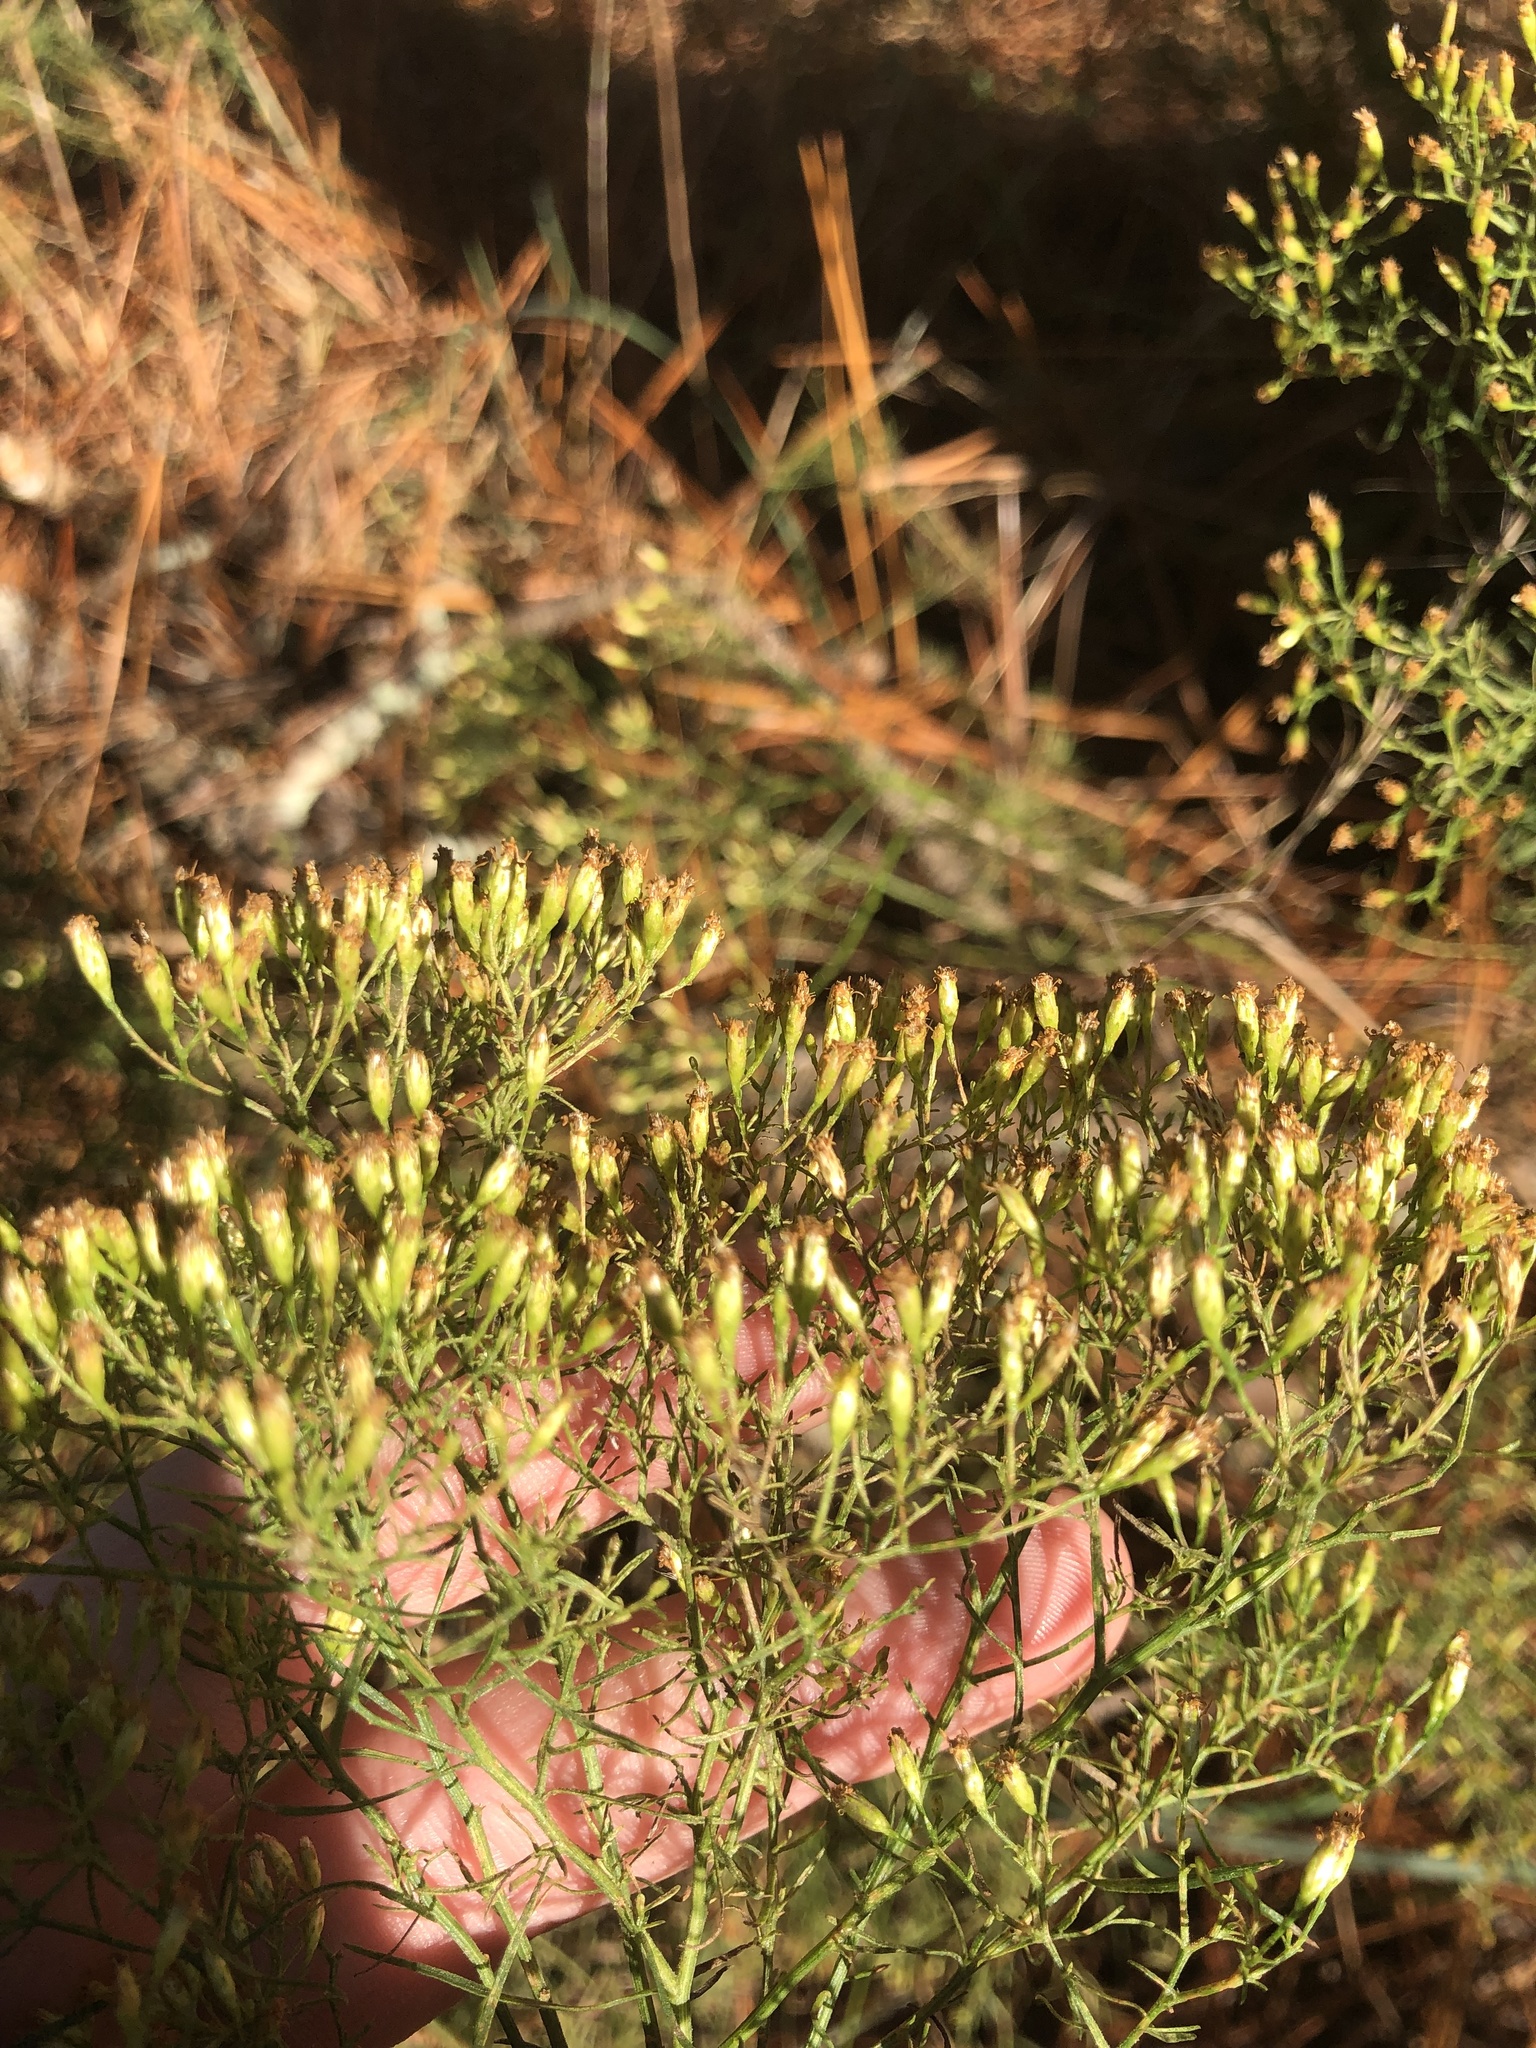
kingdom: Plantae
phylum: Tracheophyta
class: Magnoliopsida
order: Asterales
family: Asteraceae
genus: Euthamia
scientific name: Euthamia caroliniana
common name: Coastal plain goldentop
